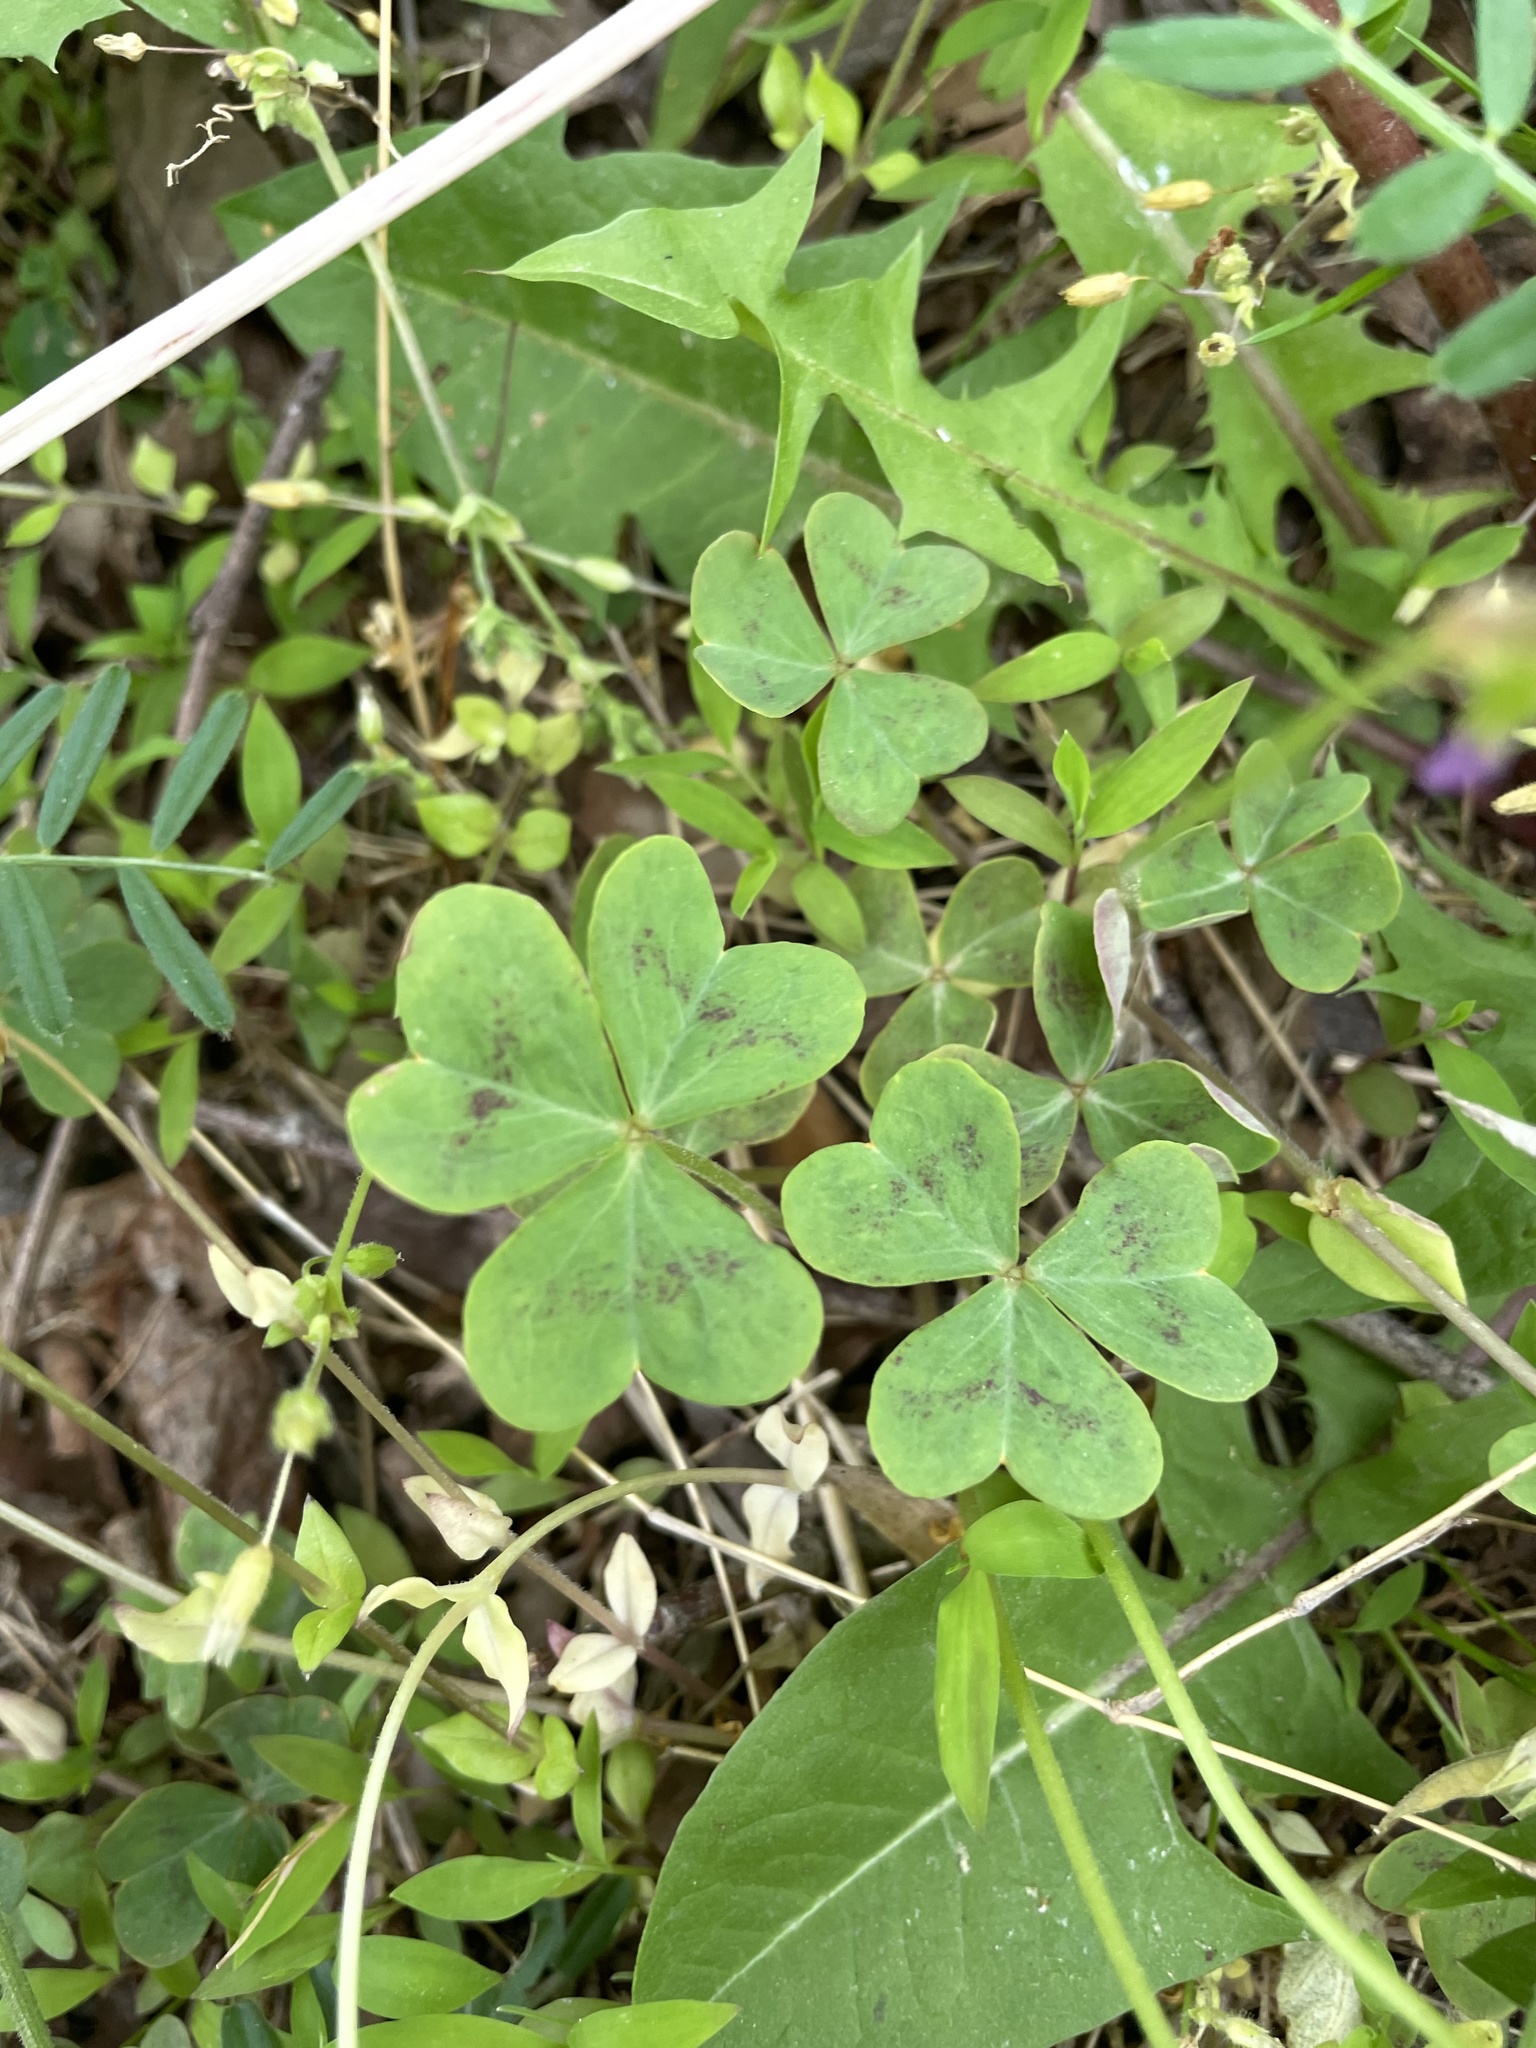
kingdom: Plantae
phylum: Tracheophyta
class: Magnoliopsida
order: Oxalidales
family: Oxalidaceae
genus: Oxalis
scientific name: Oxalis violacea
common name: Violet wood-sorrel
